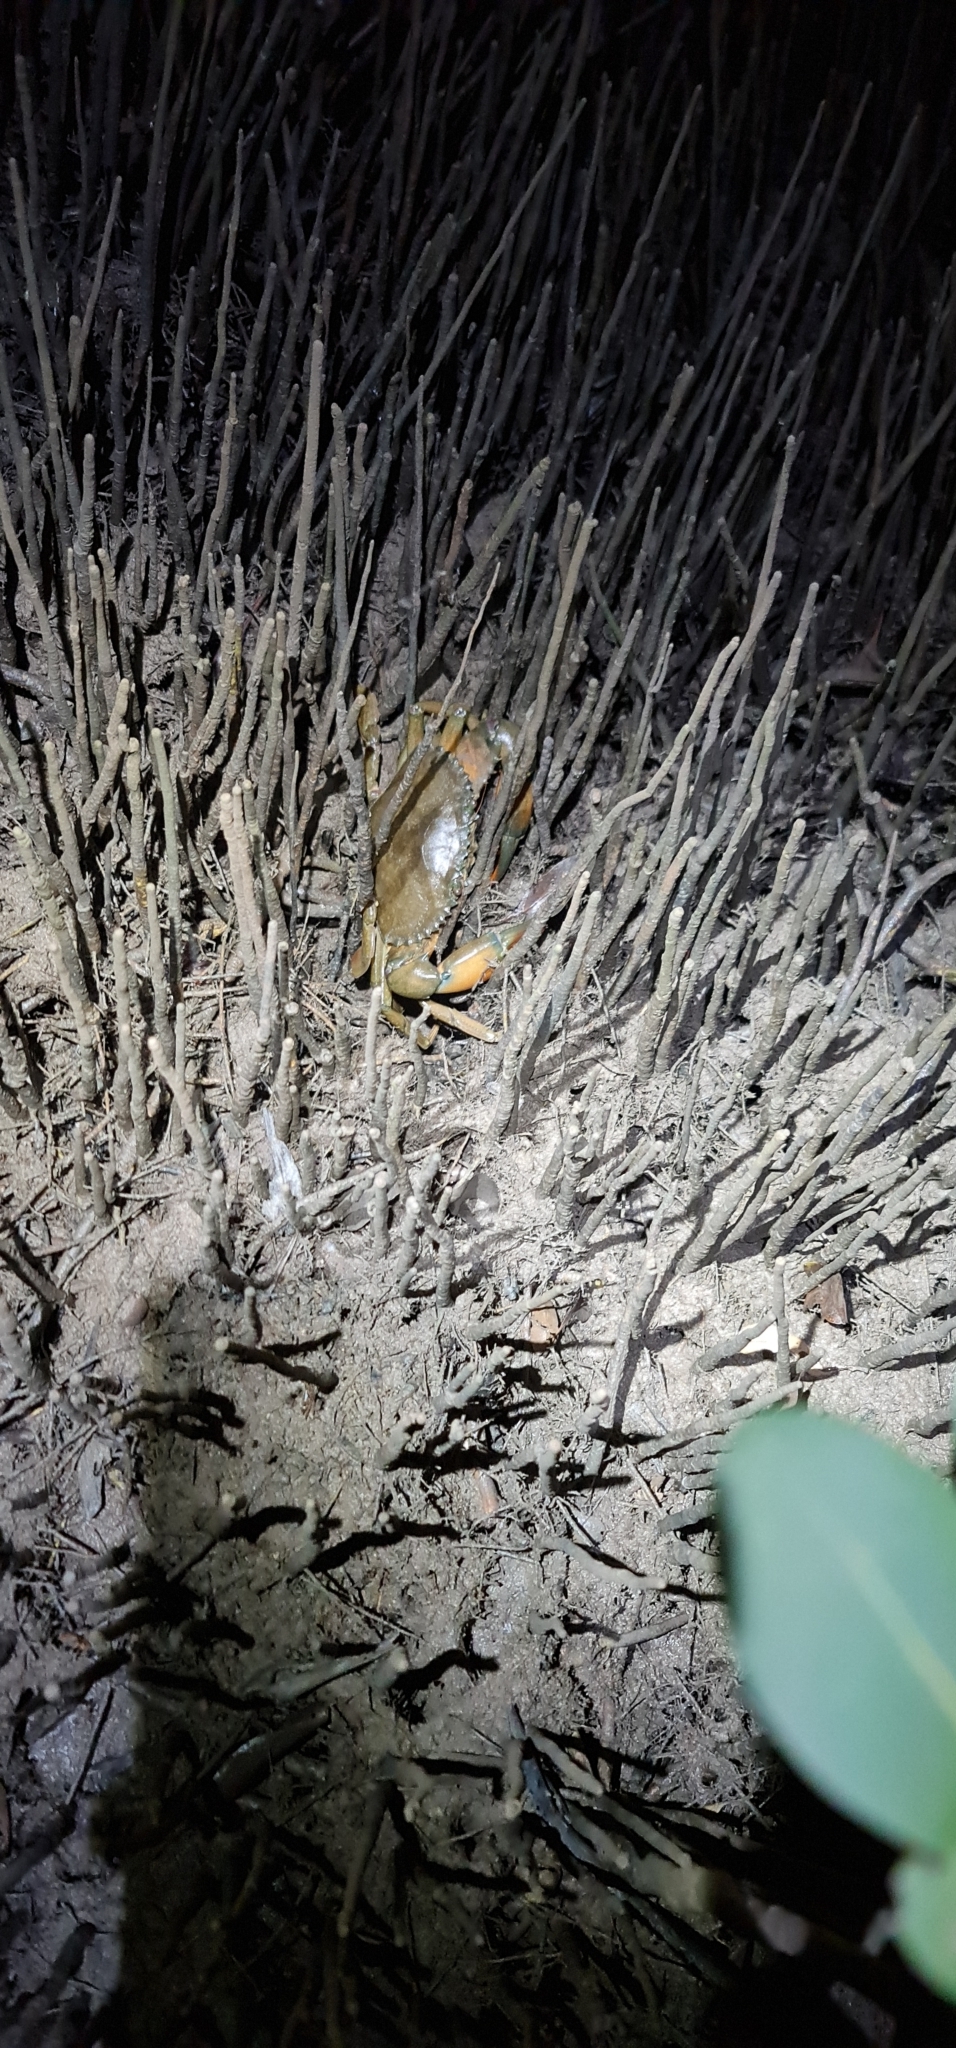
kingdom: Animalia
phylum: Arthropoda
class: Malacostraca
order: Decapoda
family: Portunidae
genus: Scylla
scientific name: Scylla olivacea
